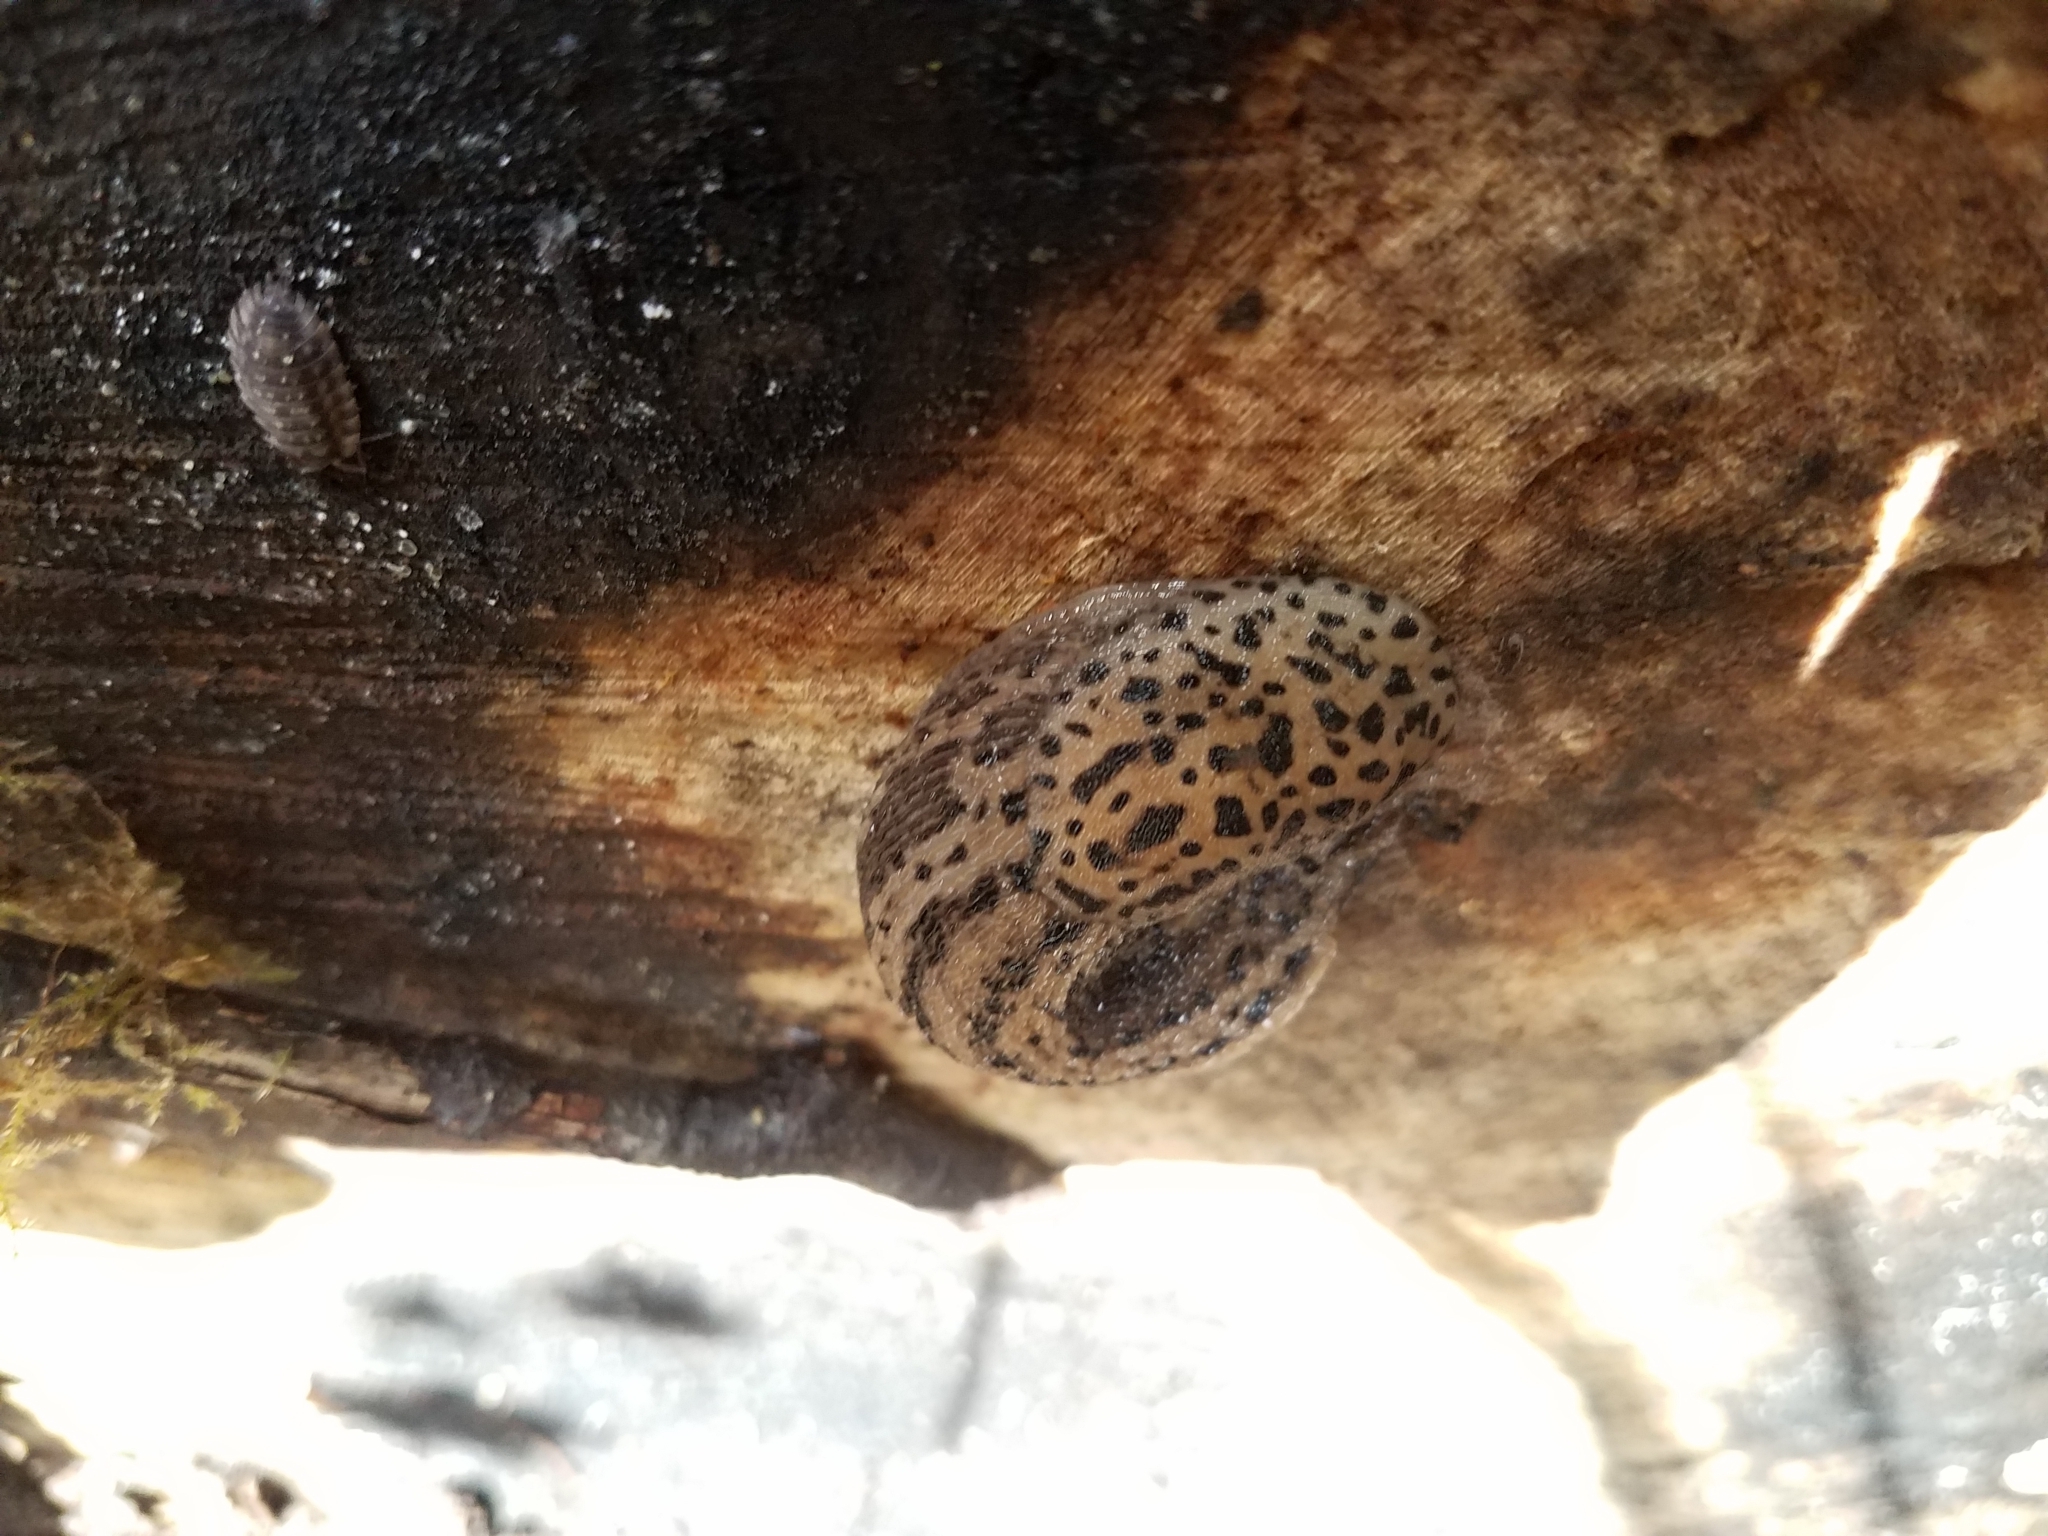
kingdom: Animalia
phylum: Mollusca
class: Gastropoda
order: Stylommatophora
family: Limacidae
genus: Limax
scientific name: Limax maximus
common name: Great grey slug
